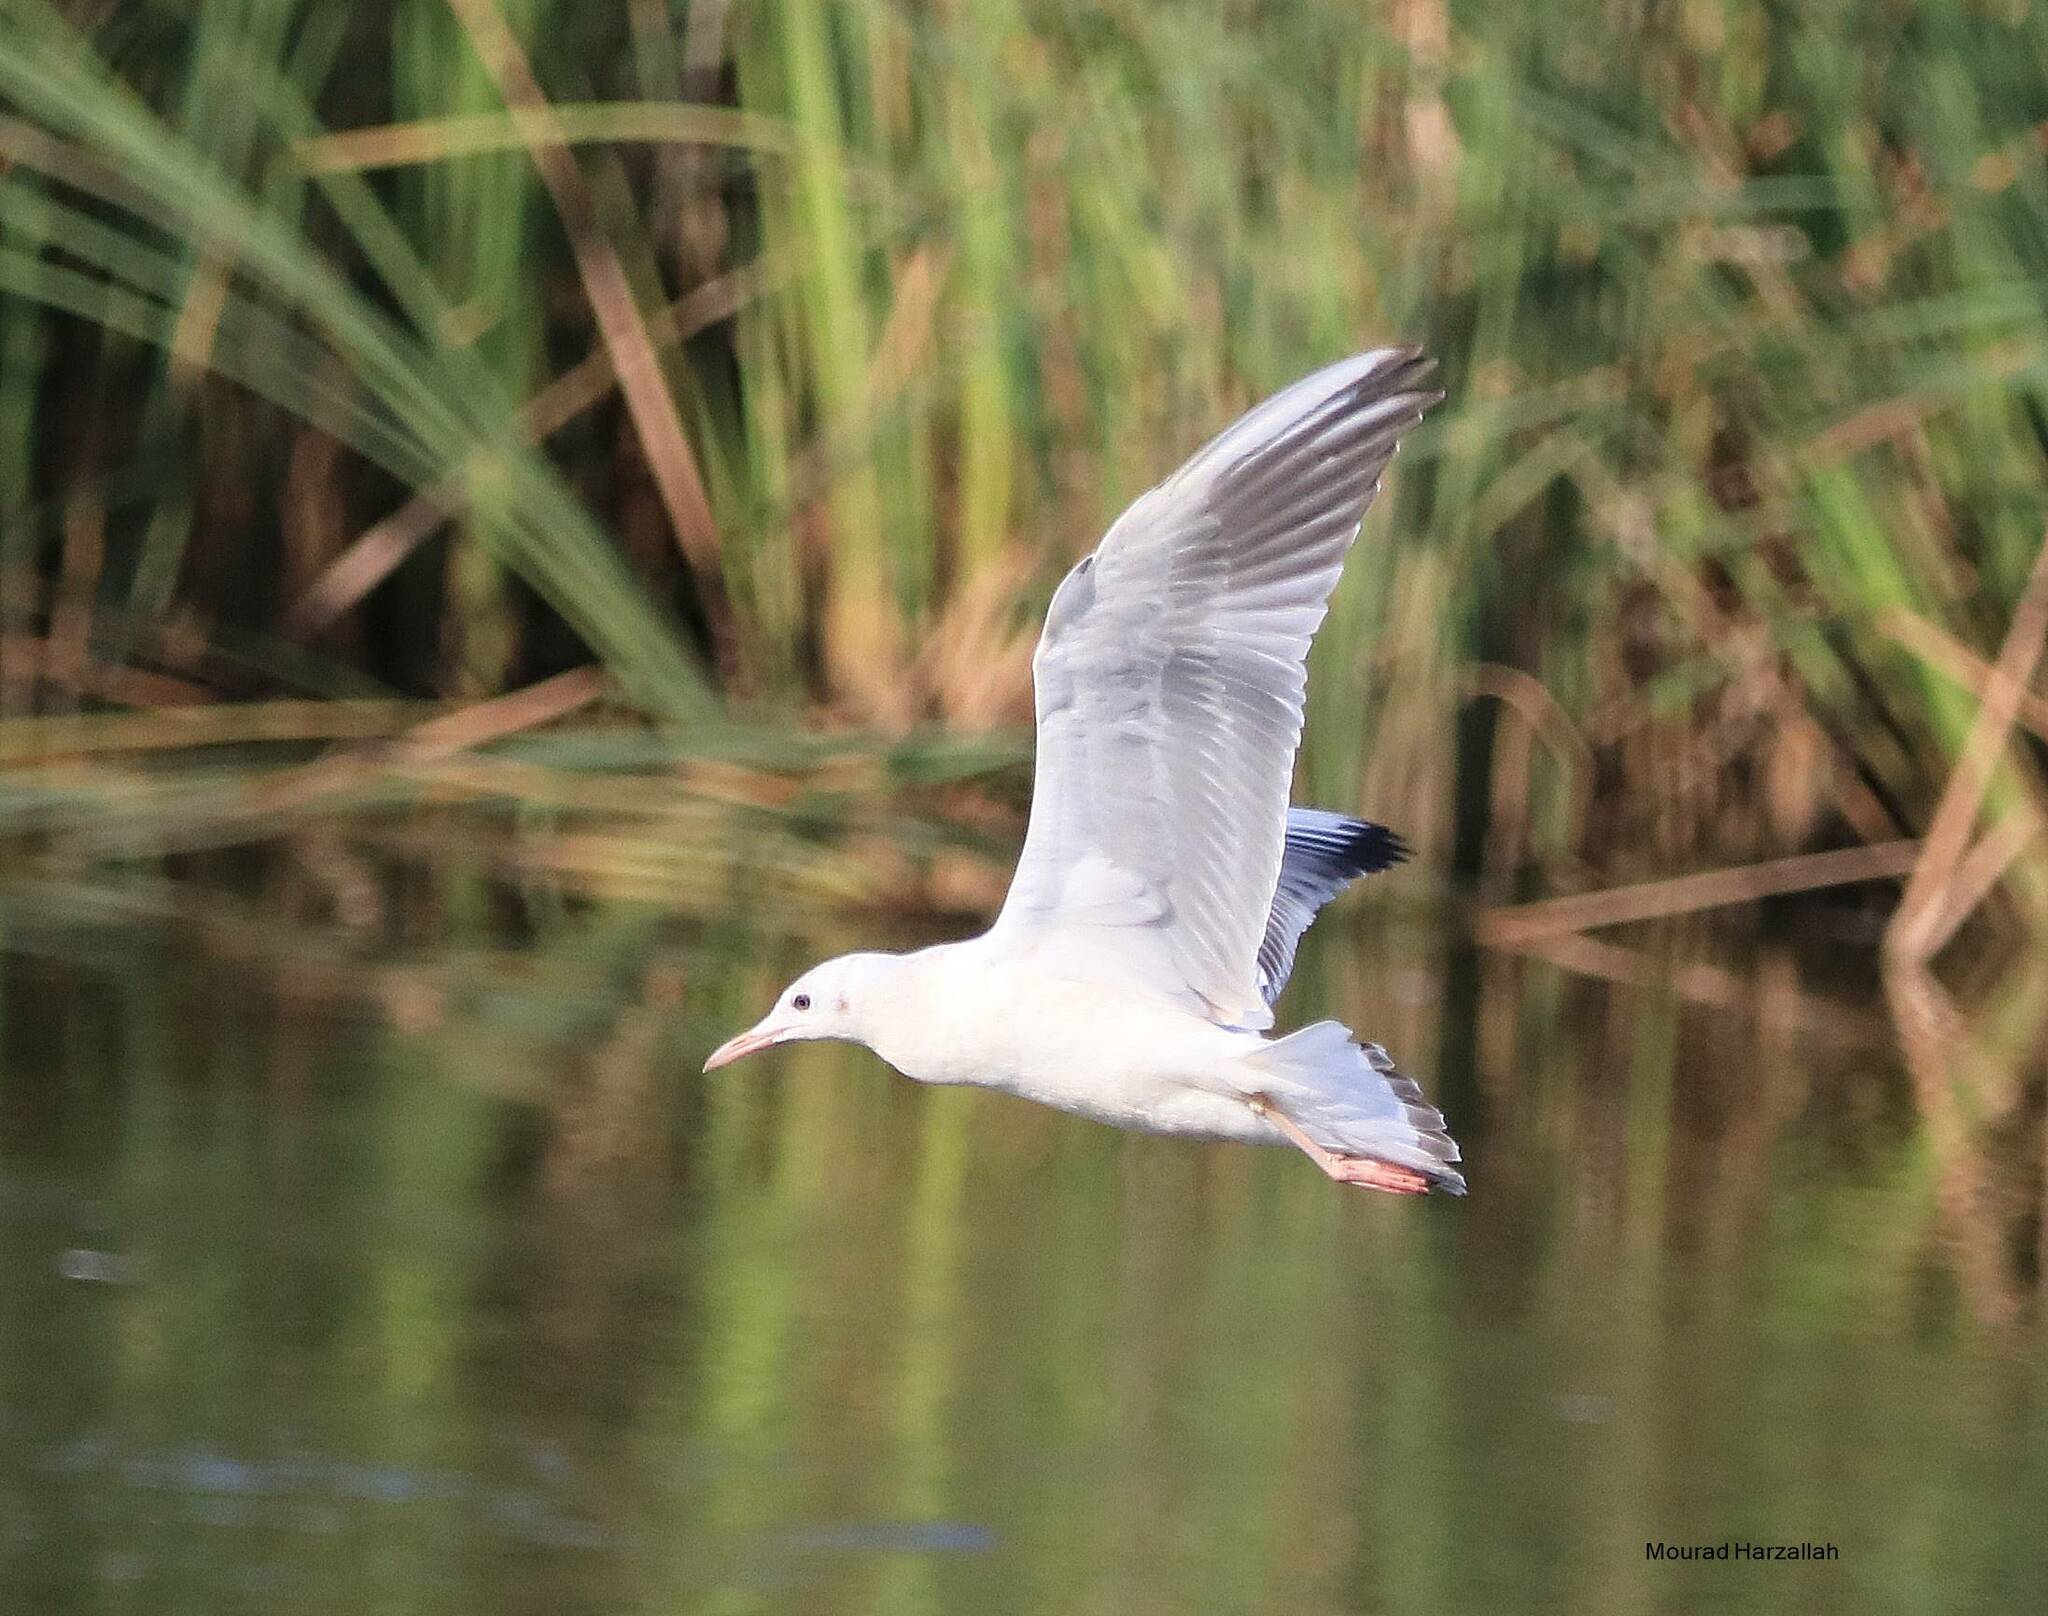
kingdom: Animalia
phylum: Chordata
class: Aves
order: Charadriiformes
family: Laridae
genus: Chroicocephalus
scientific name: Chroicocephalus genei
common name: Slender-billed gull
